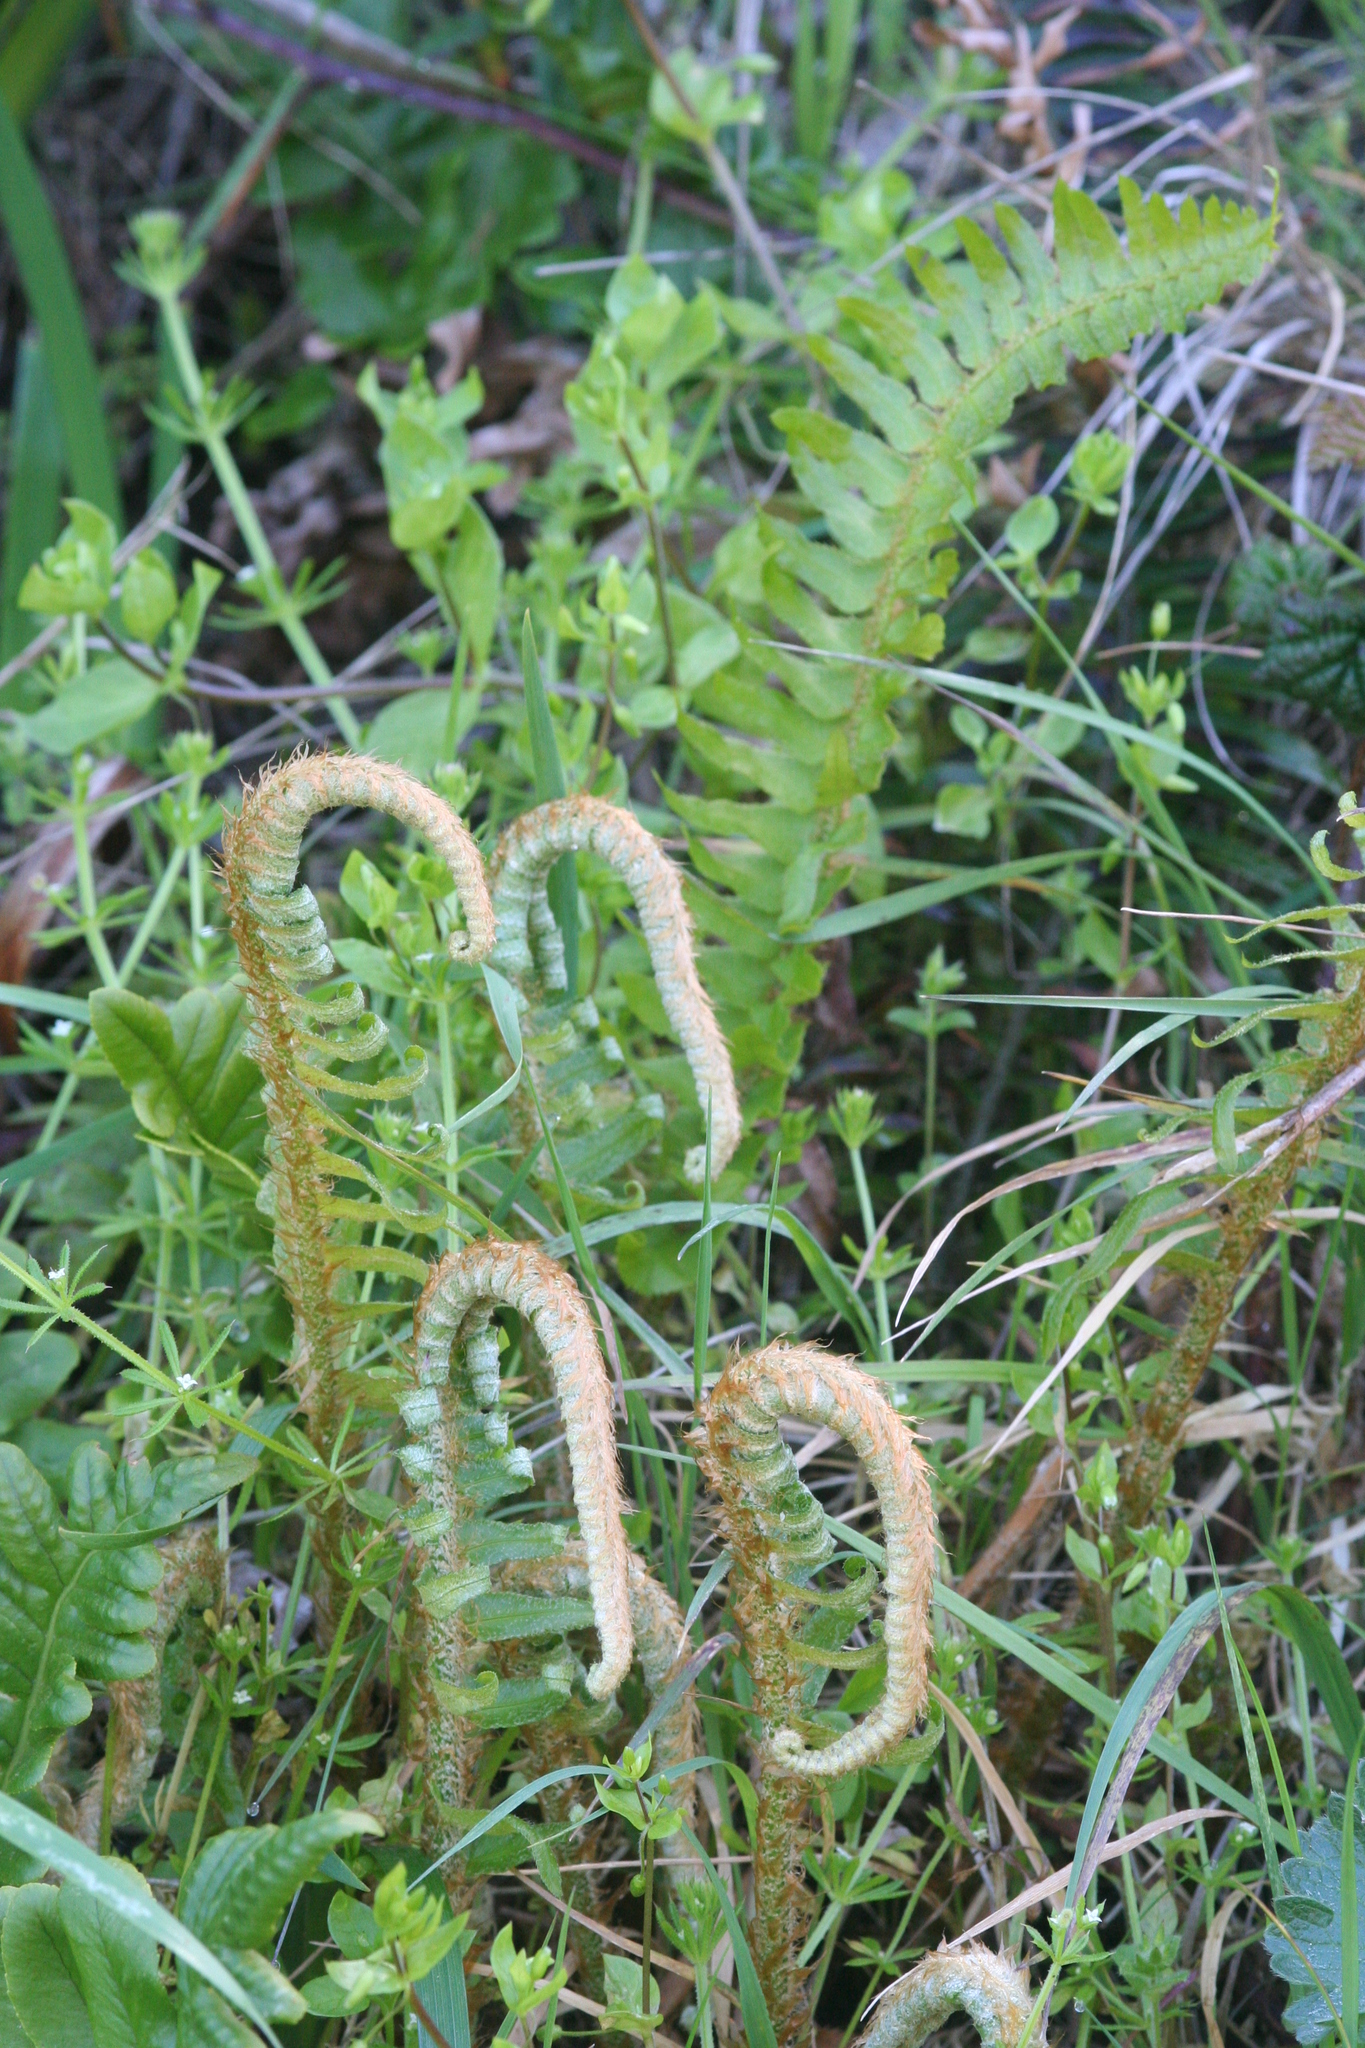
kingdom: Plantae
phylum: Tracheophyta
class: Polypodiopsida
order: Polypodiales
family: Dryopteridaceae
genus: Polystichum
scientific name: Polystichum munitum
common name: Western sword-fern
